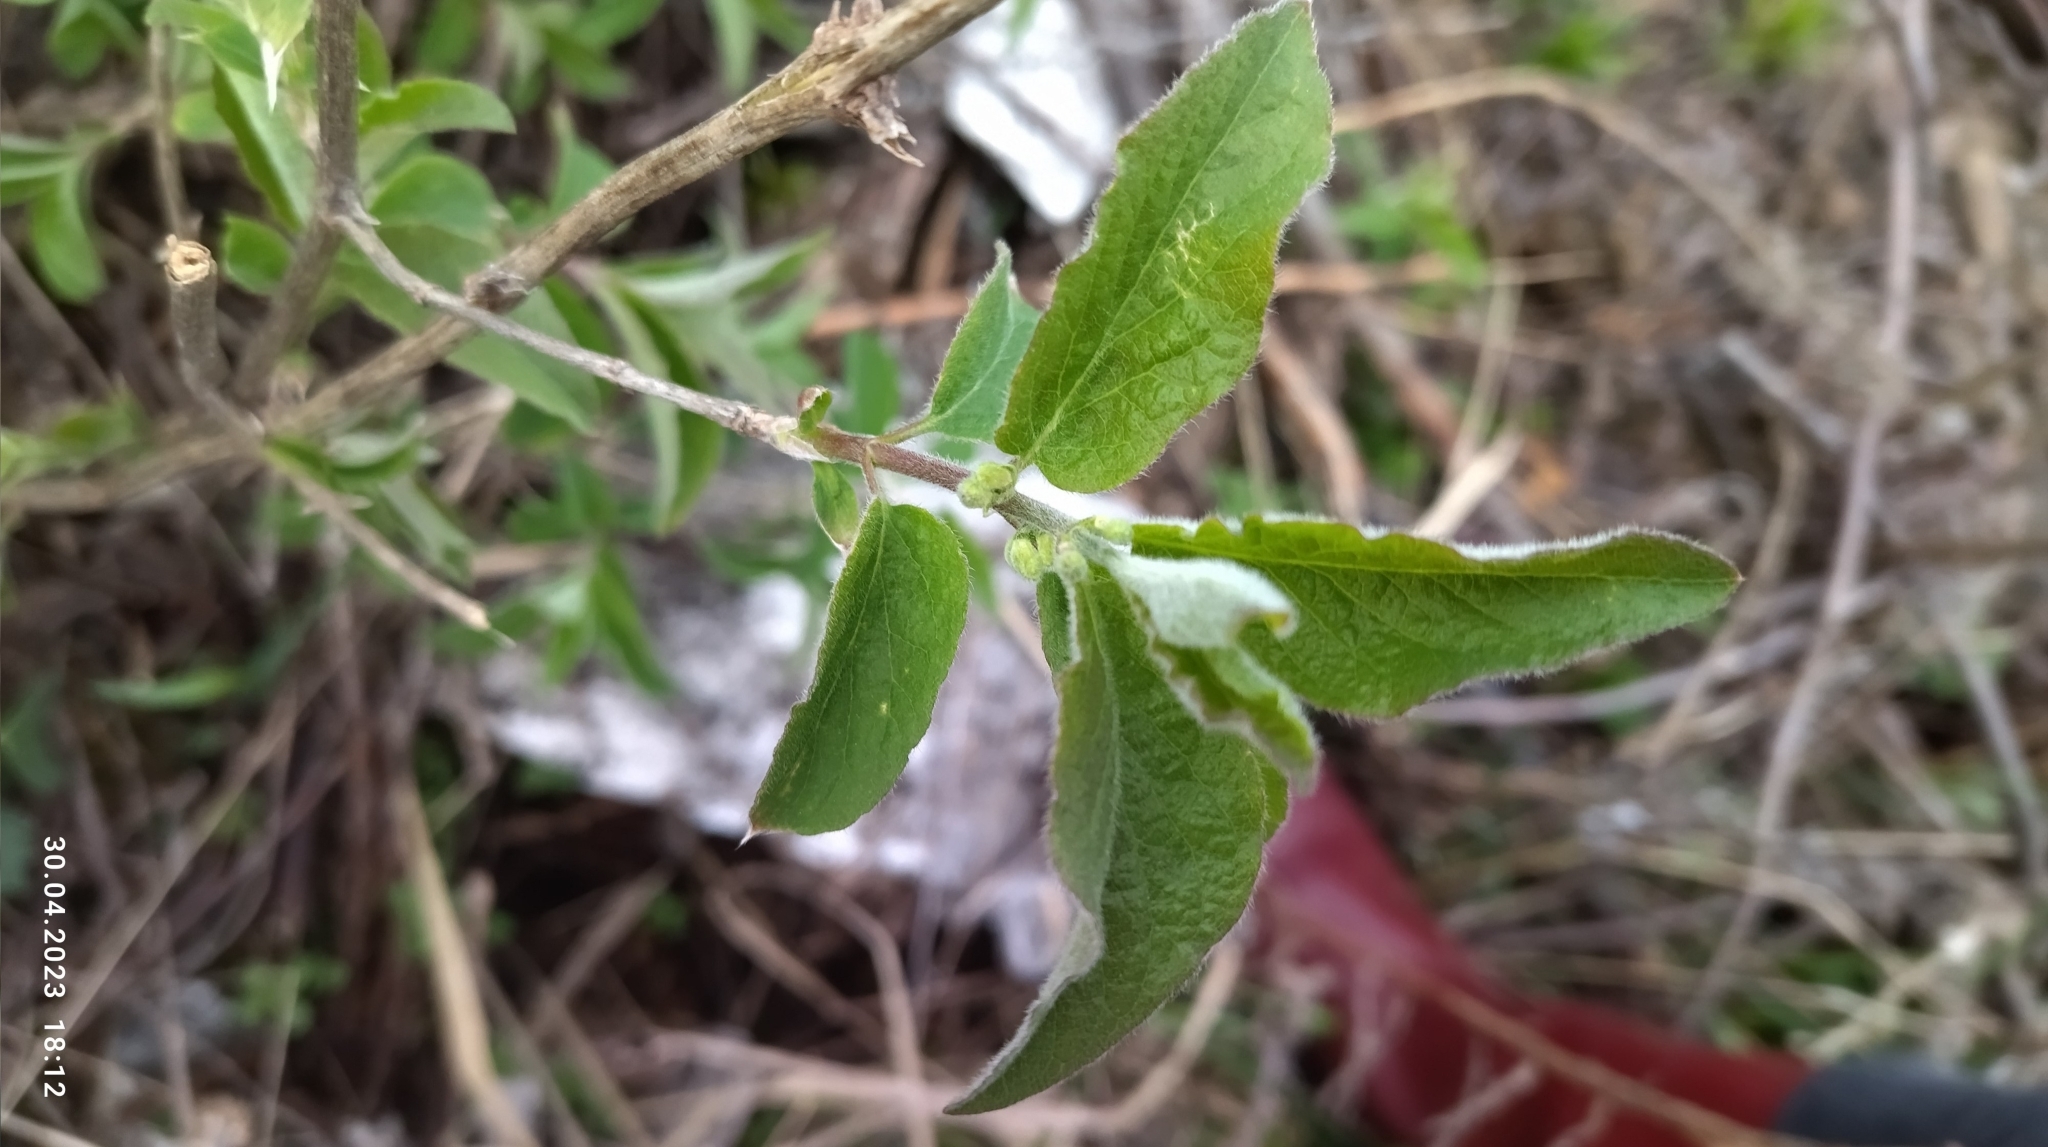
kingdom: Plantae
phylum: Tracheophyta
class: Magnoliopsida
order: Dipsacales
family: Caprifoliaceae
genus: Lonicera
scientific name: Lonicera xylosteum
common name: Fly honeysuckle
